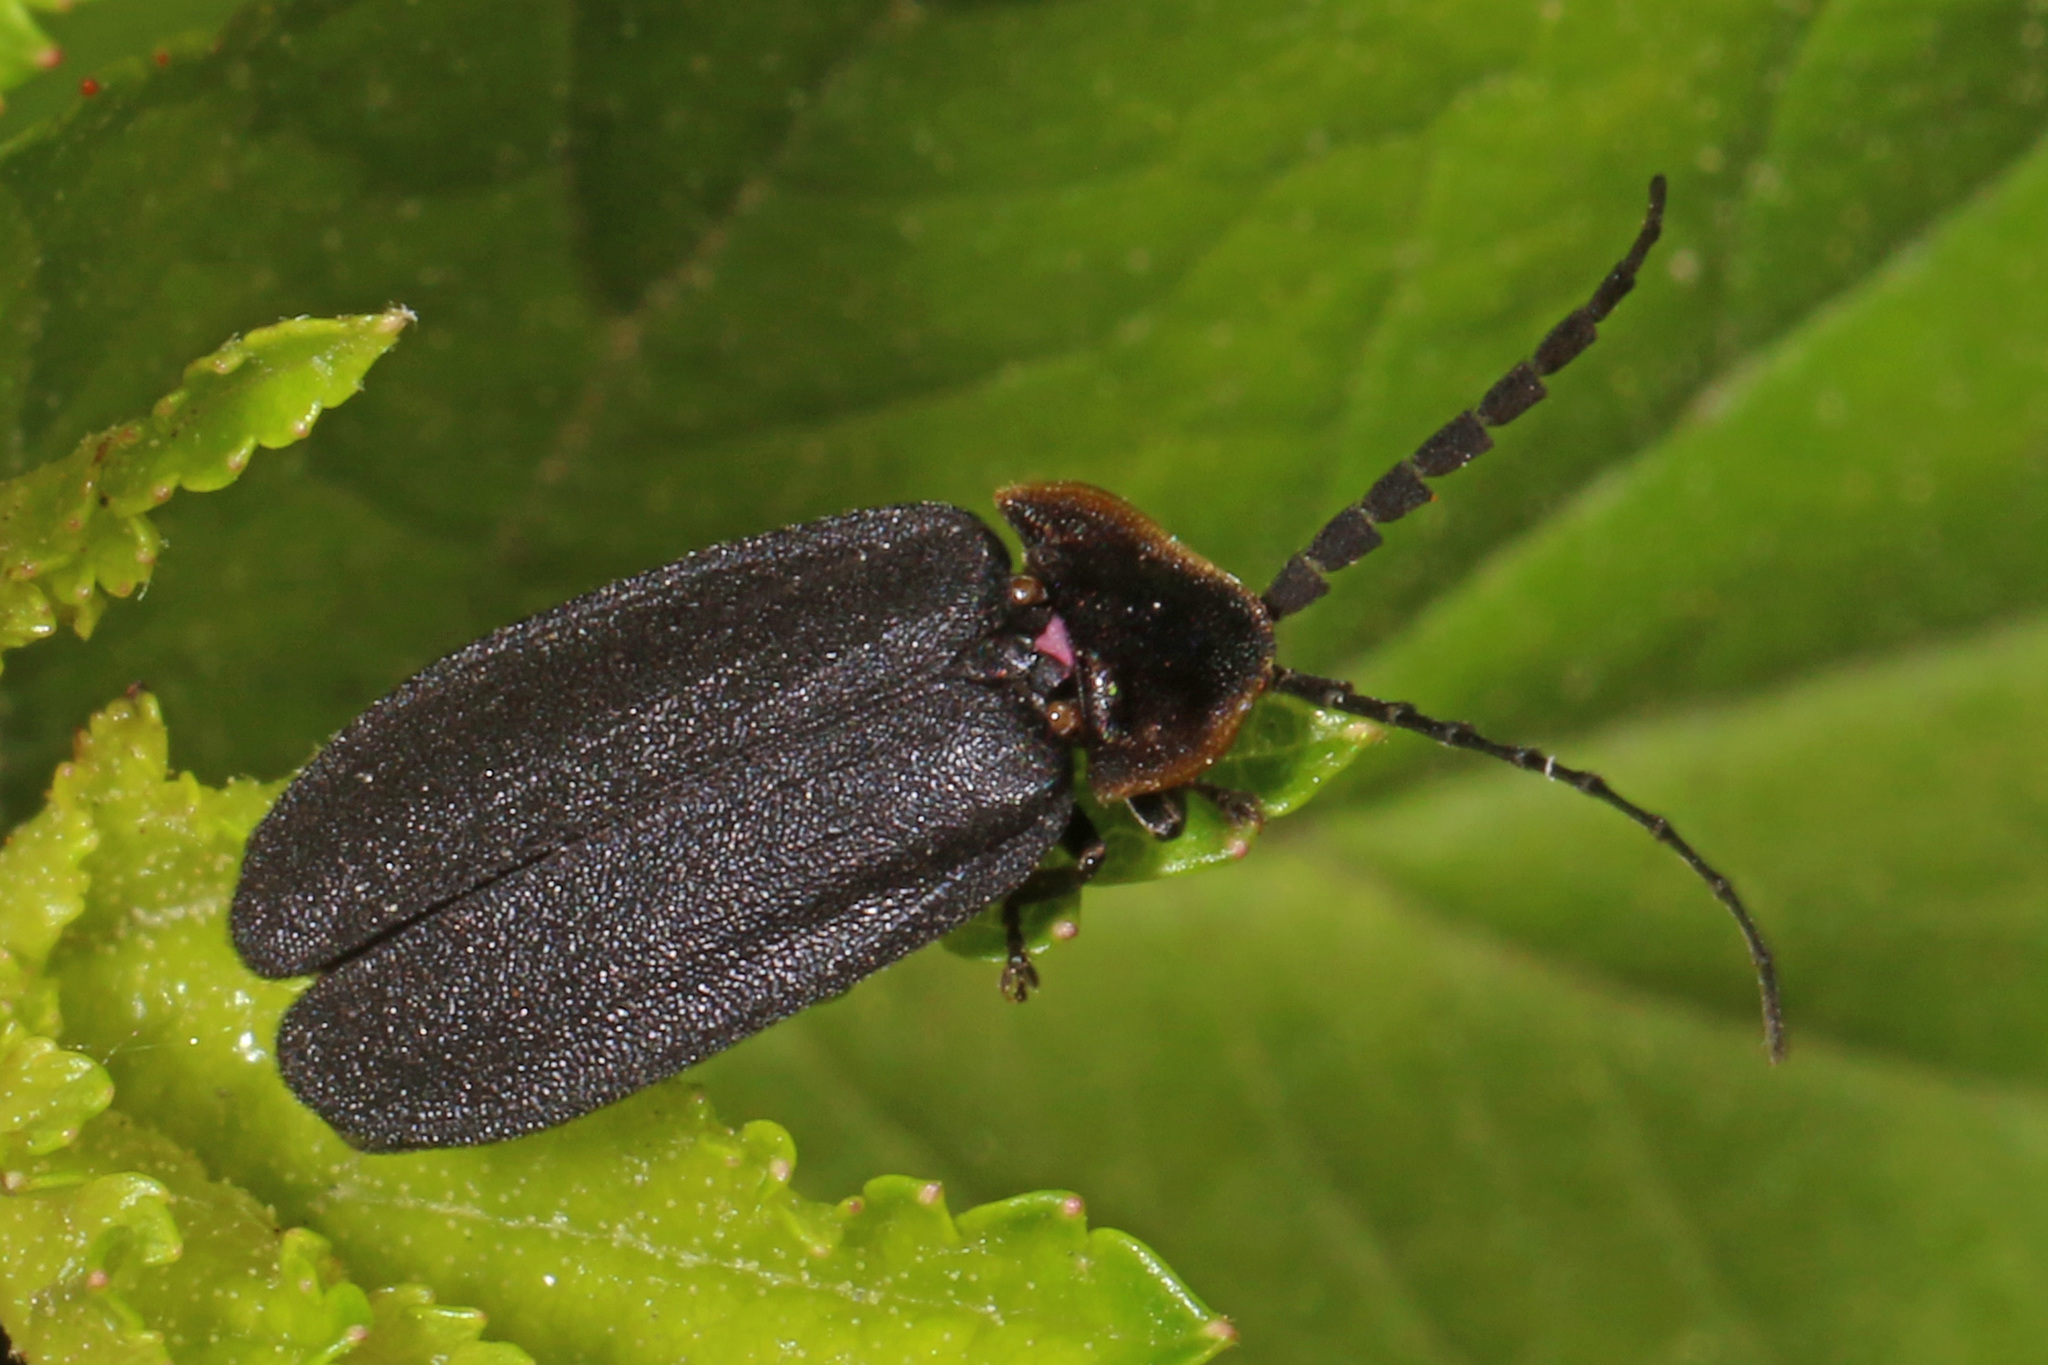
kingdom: Animalia
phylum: Arthropoda
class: Insecta
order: Coleoptera
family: Lampyridae
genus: Lucidota
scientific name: Lucidota atra
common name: Black firefly
